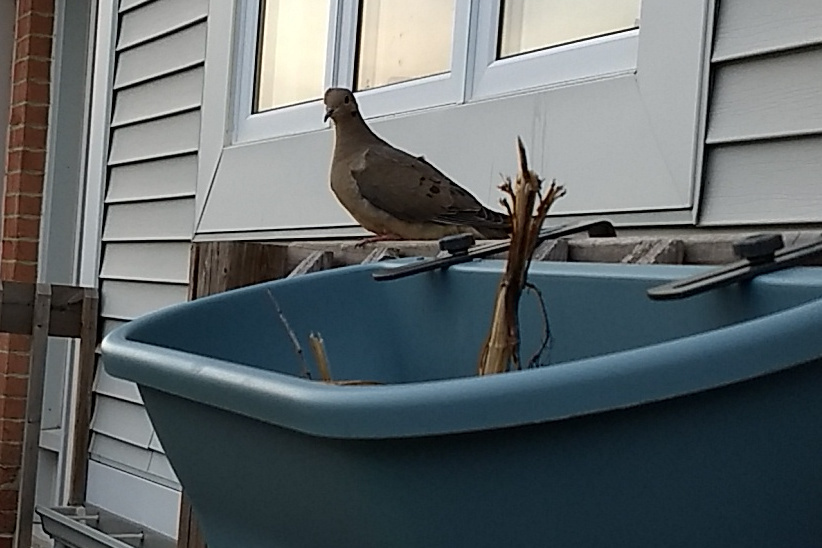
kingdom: Animalia
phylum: Chordata
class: Aves
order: Columbiformes
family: Columbidae
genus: Zenaida
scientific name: Zenaida macroura
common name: Mourning dove
